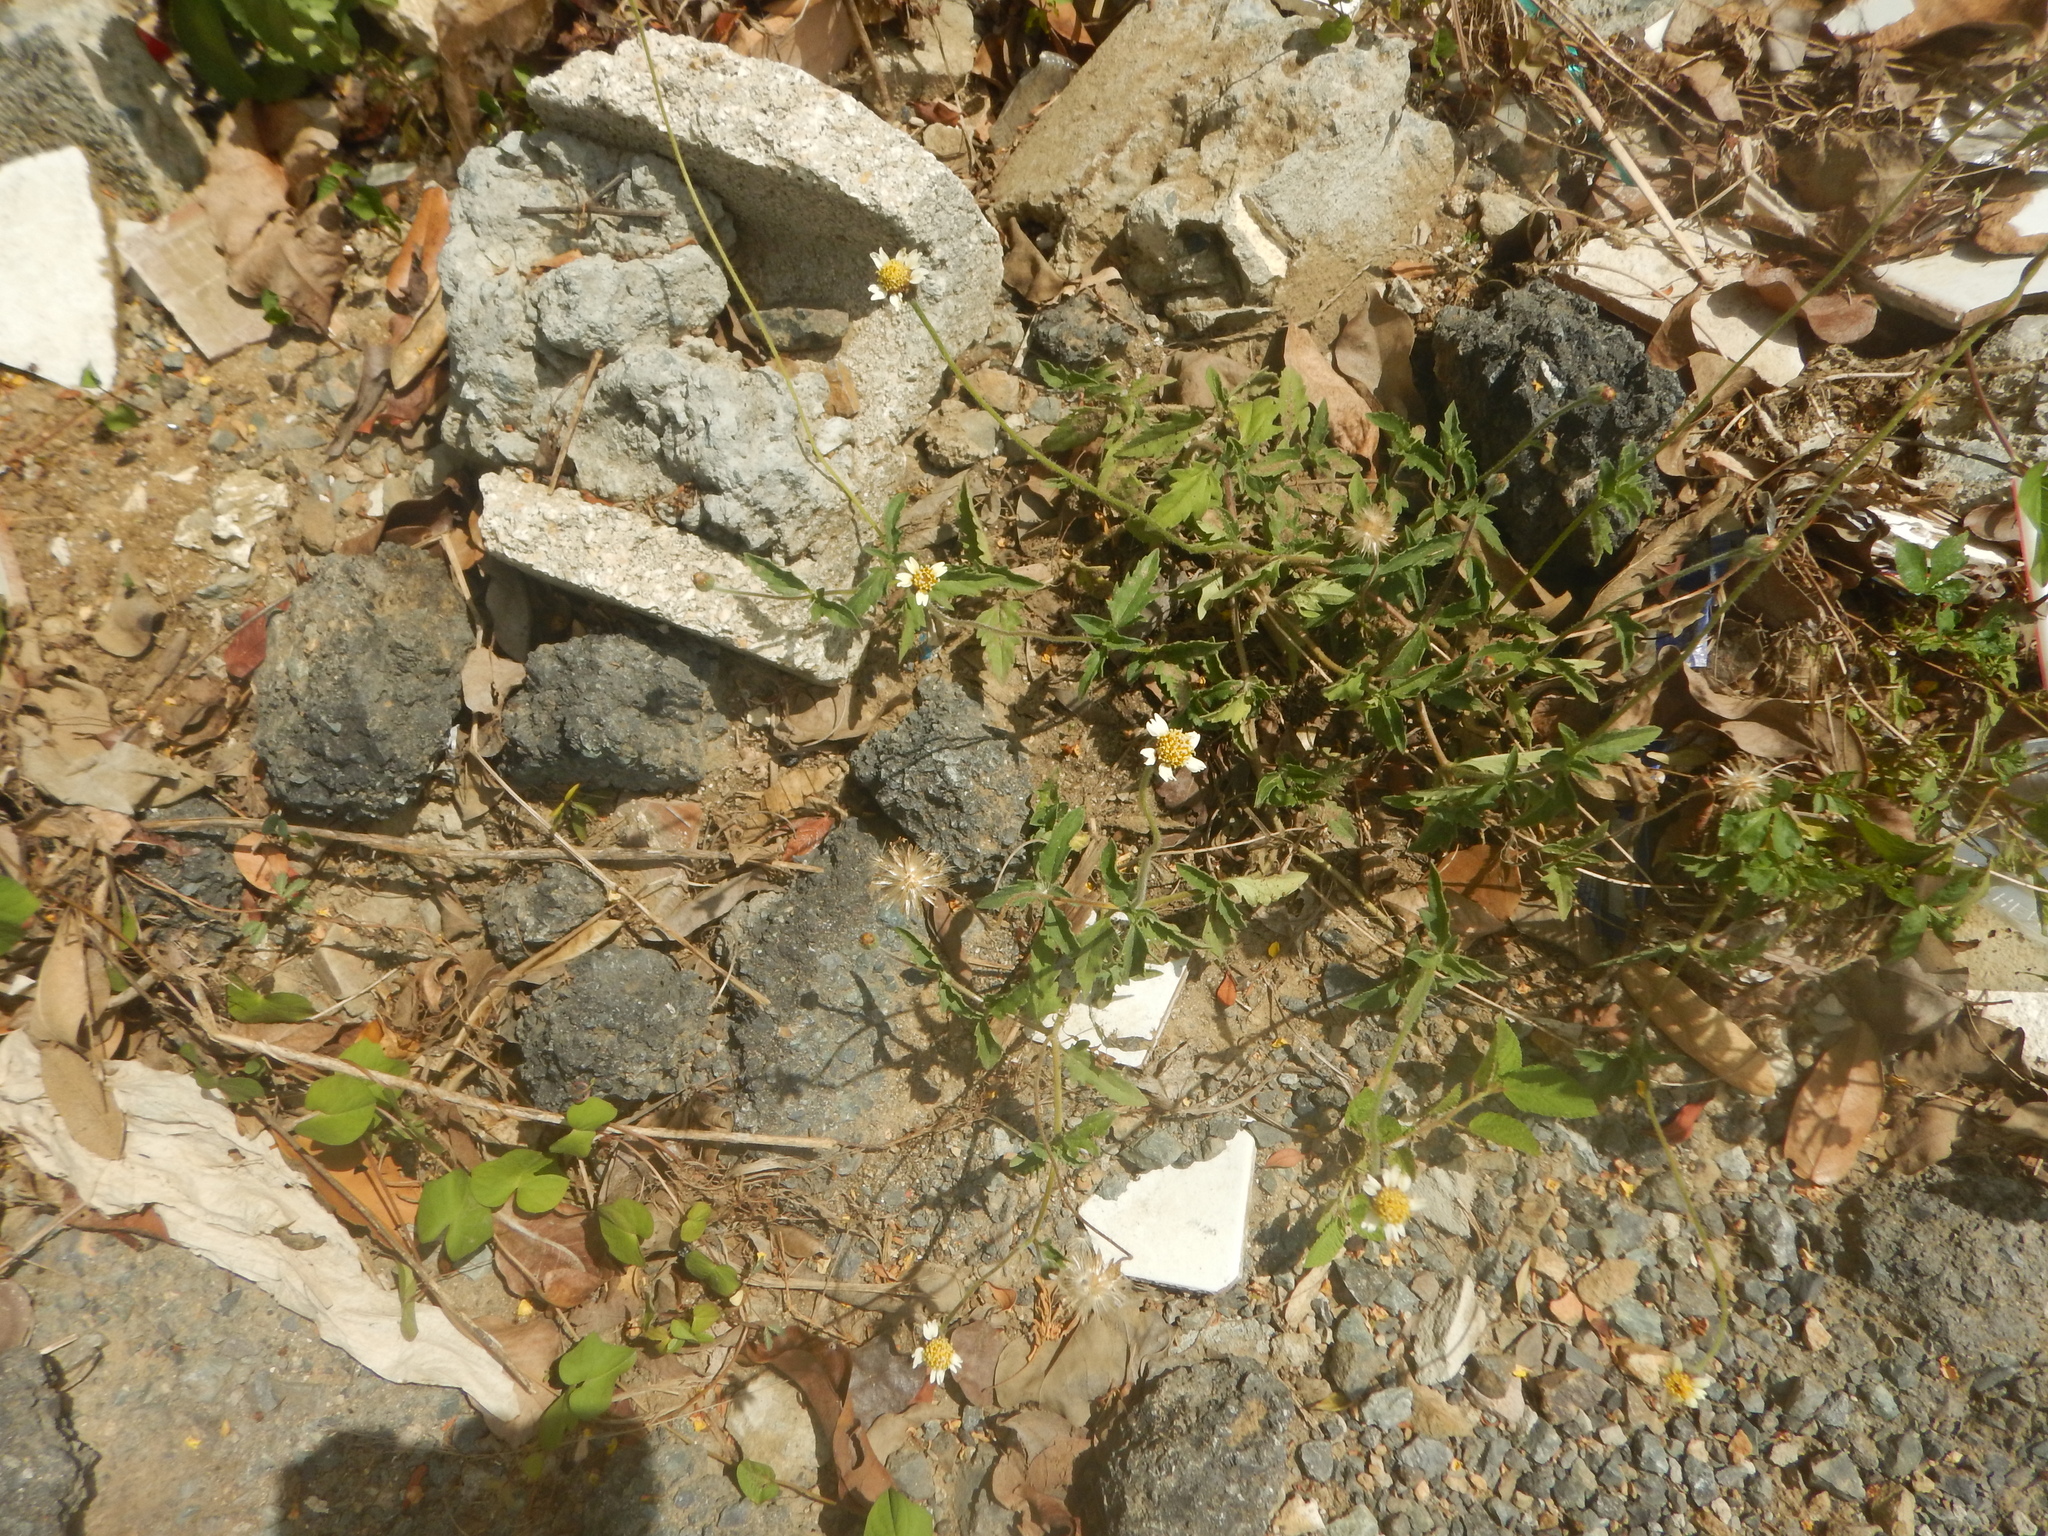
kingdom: Plantae
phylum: Tracheophyta
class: Magnoliopsida
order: Asterales
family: Asteraceae
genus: Tridax
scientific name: Tridax procumbens
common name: Coatbuttons
